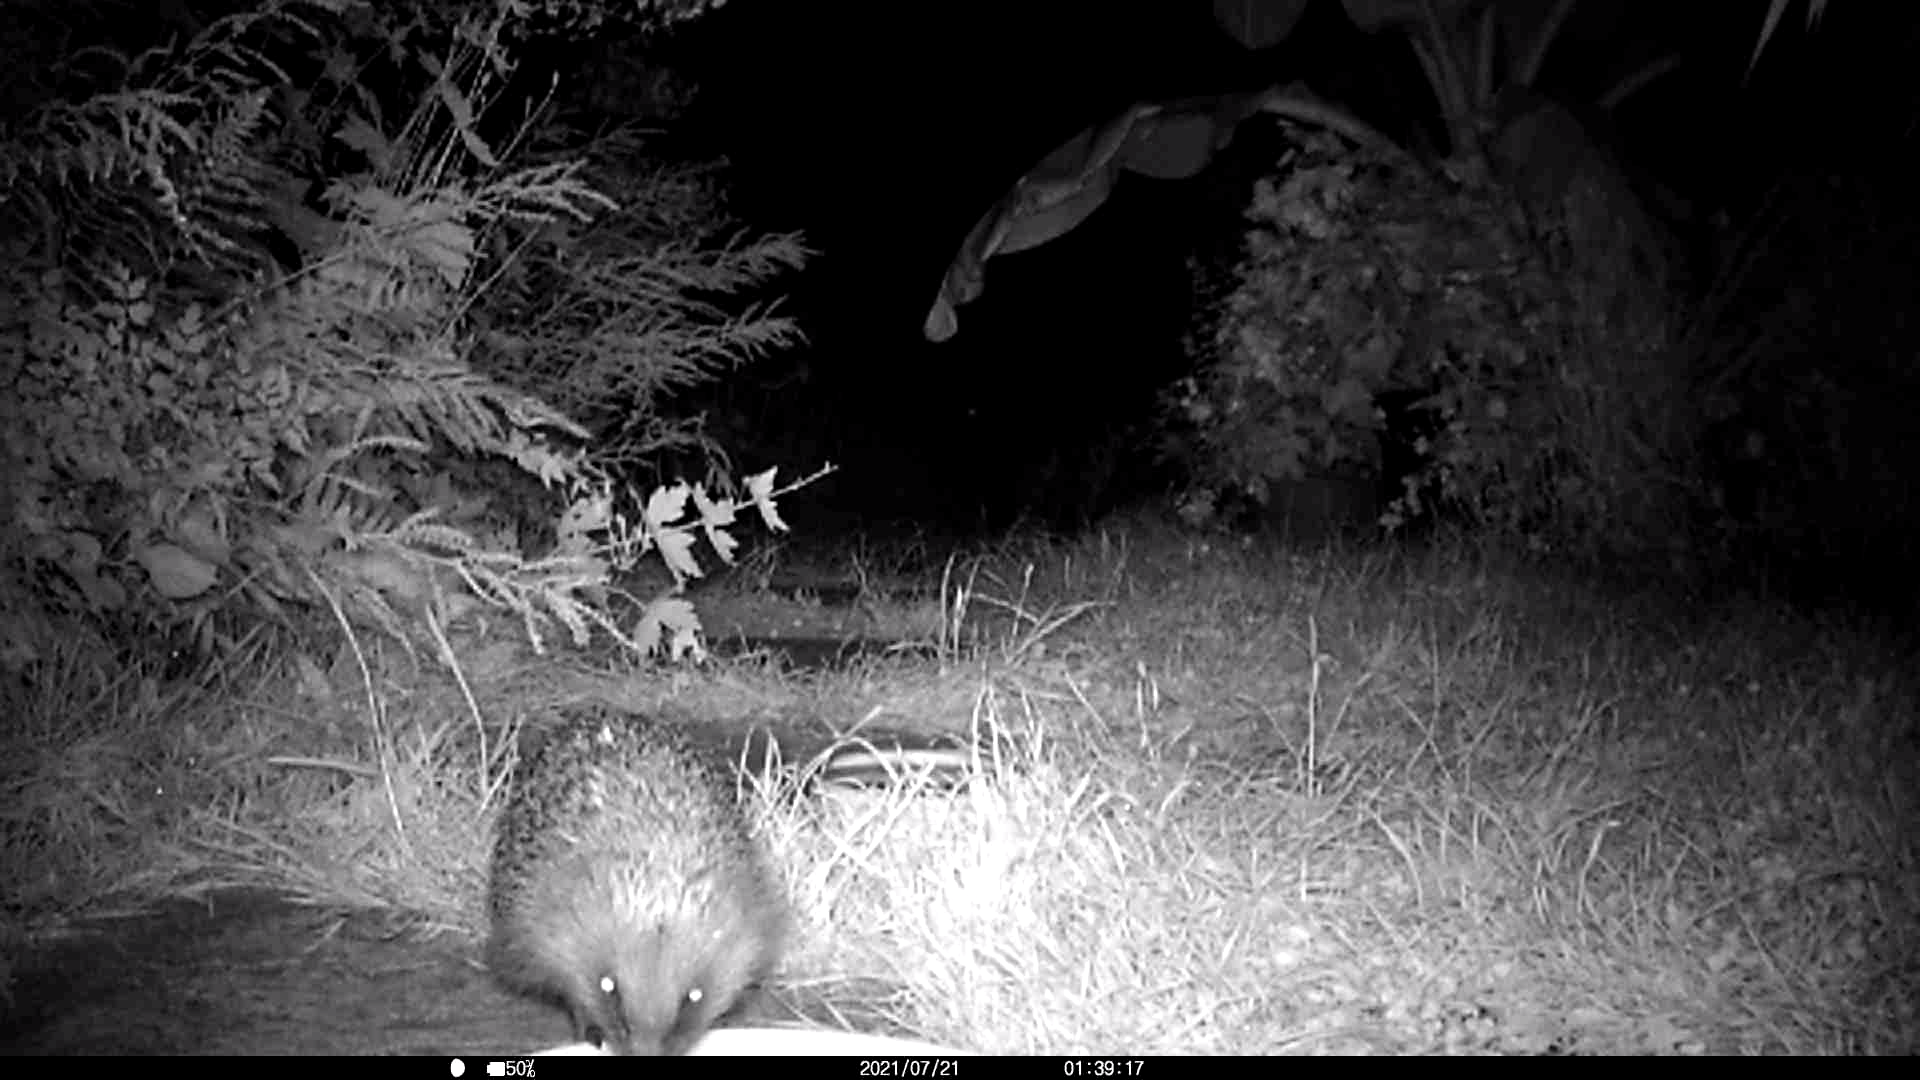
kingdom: Animalia
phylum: Chordata
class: Mammalia
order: Erinaceomorpha
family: Erinaceidae
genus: Erinaceus
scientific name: Erinaceus europaeus
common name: West european hedgehog
